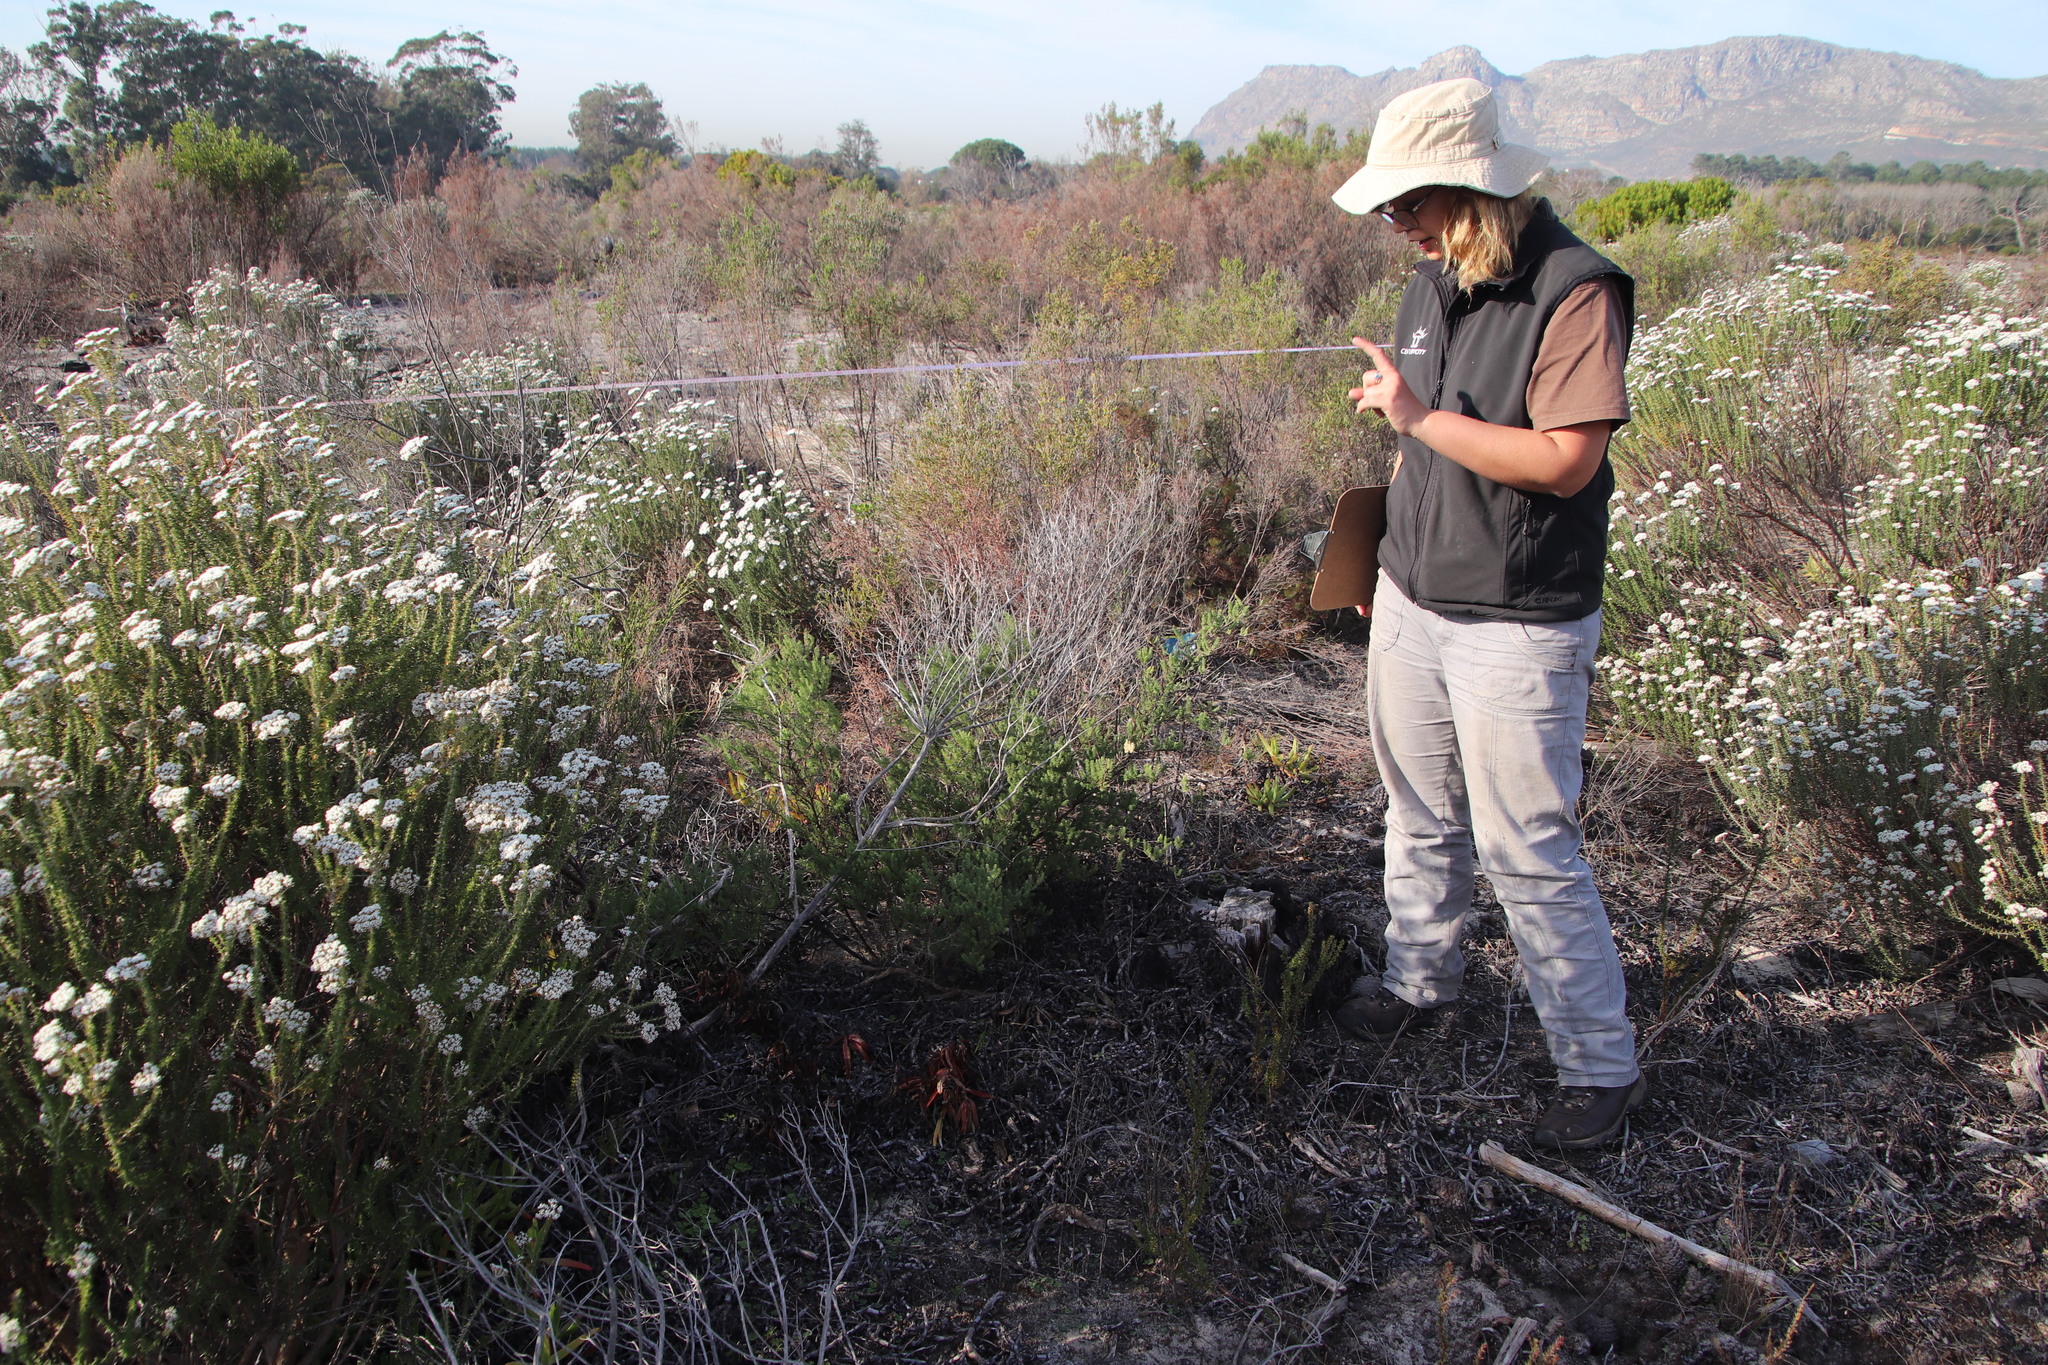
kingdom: Plantae
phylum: Tracheophyta
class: Liliopsida
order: Asparagales
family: Asparagaceae
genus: Asparagus
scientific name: Asparagus rubicundus
